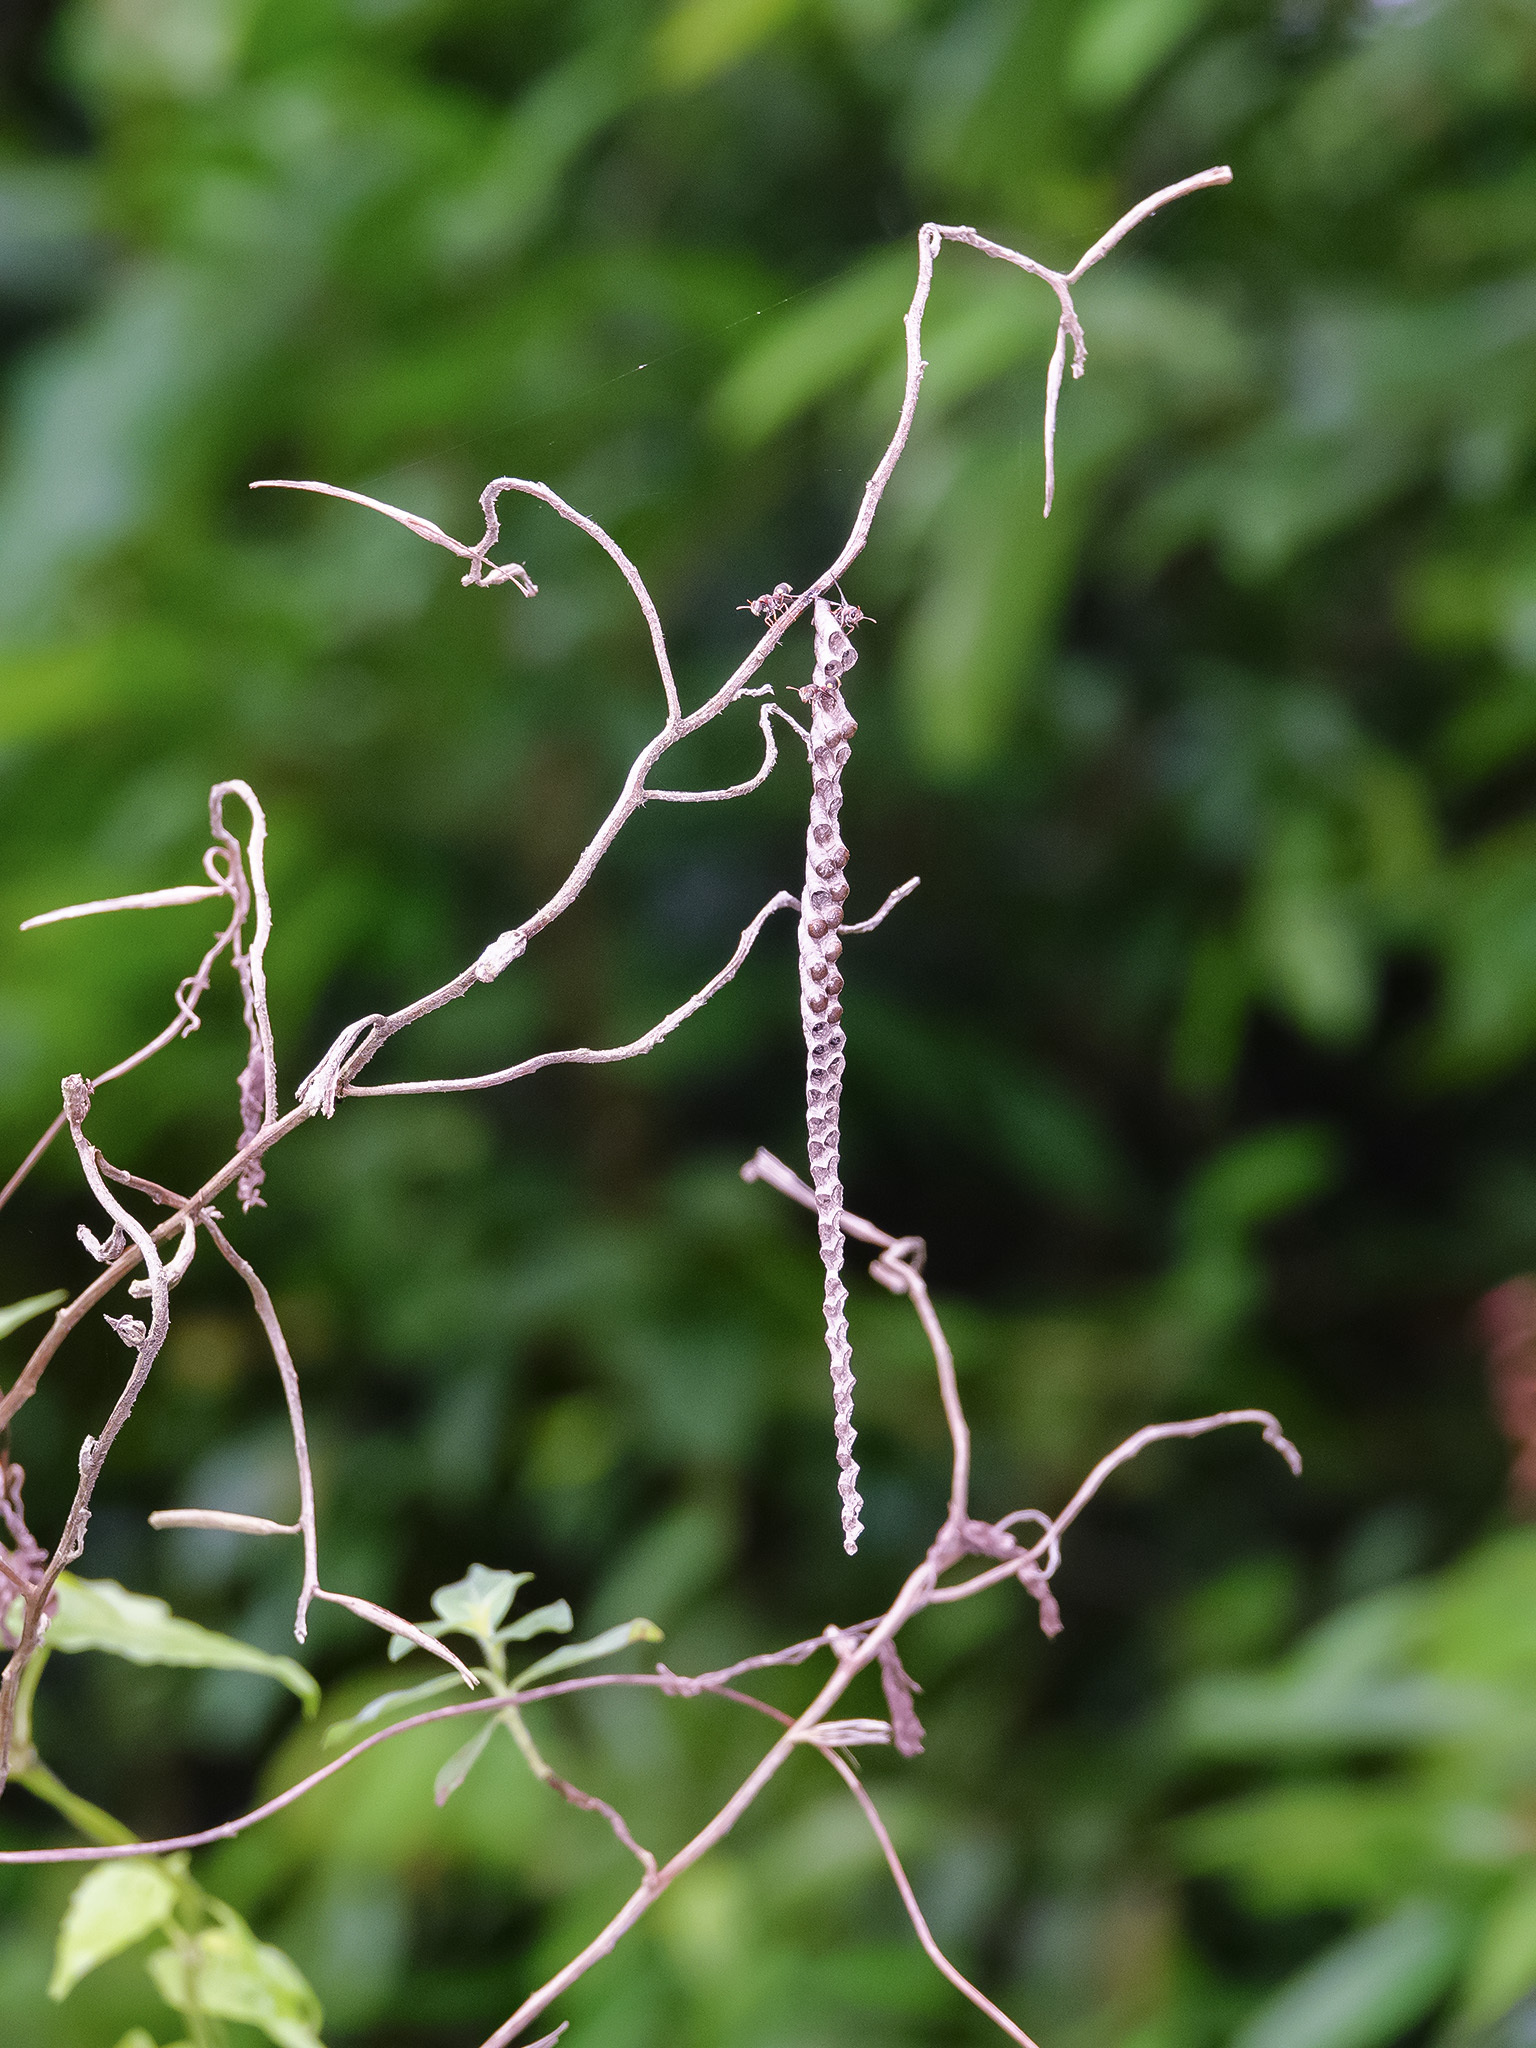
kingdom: Animalia
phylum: Arthropoda
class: Insecta
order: Hymenoptera
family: Vespidae
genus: Ropalidia
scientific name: Ropalidia jacobsoni
